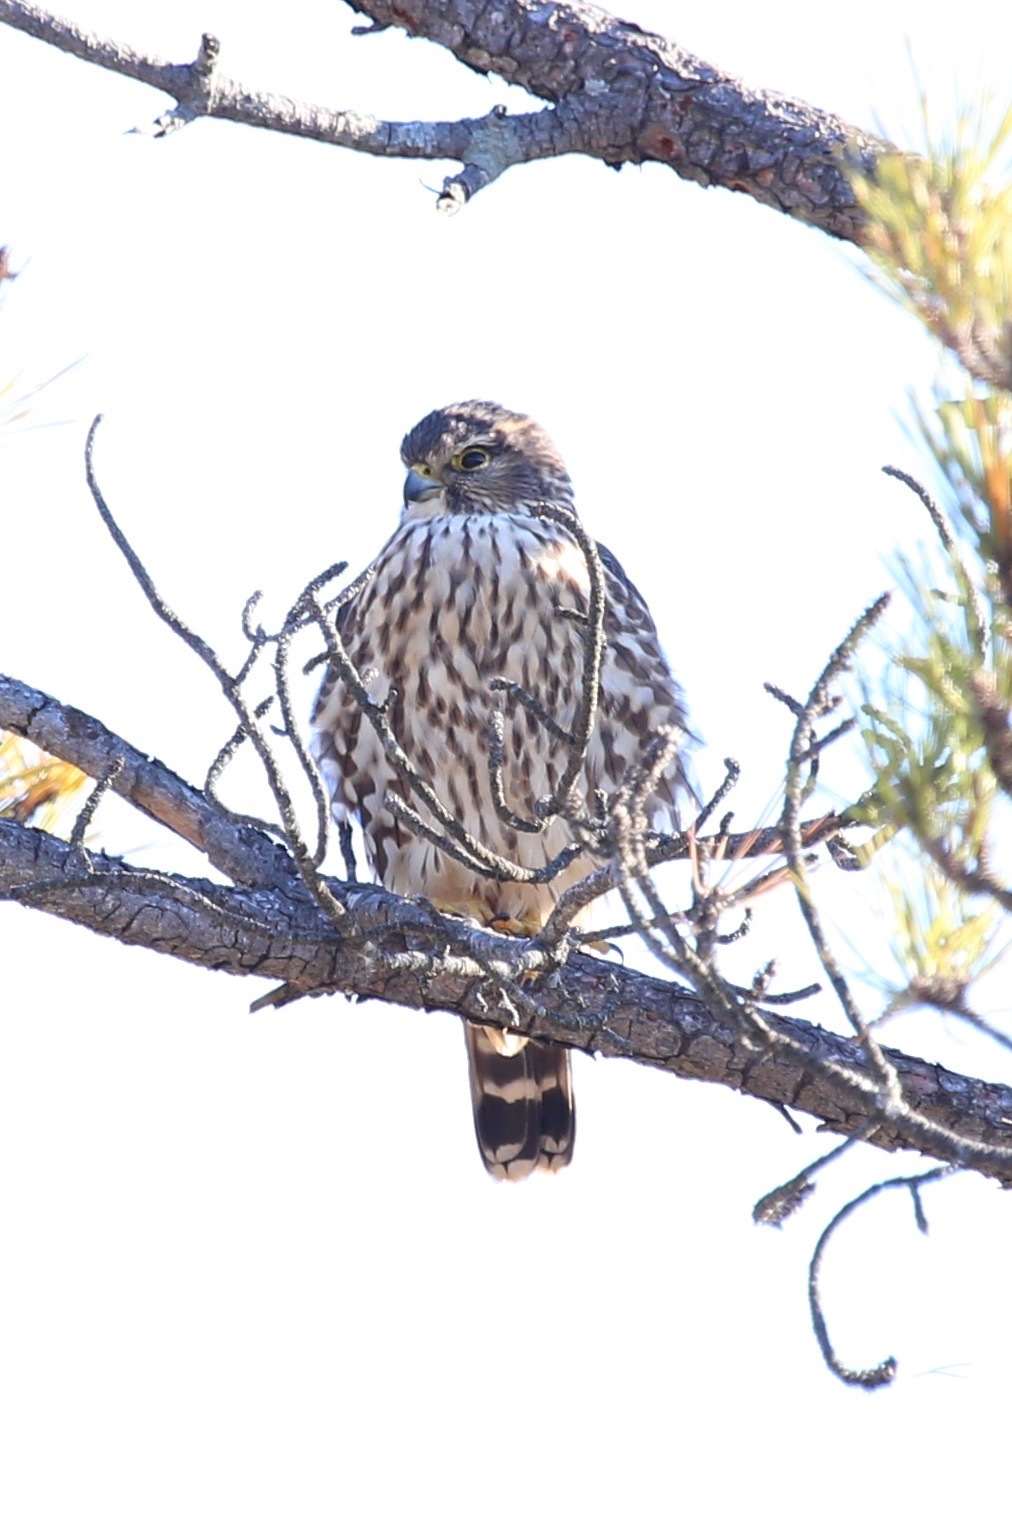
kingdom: Animalia
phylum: Chordata
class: Aves
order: Falconiformes
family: Falconidae
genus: Falco
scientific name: Falco columbarius
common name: Merlin
